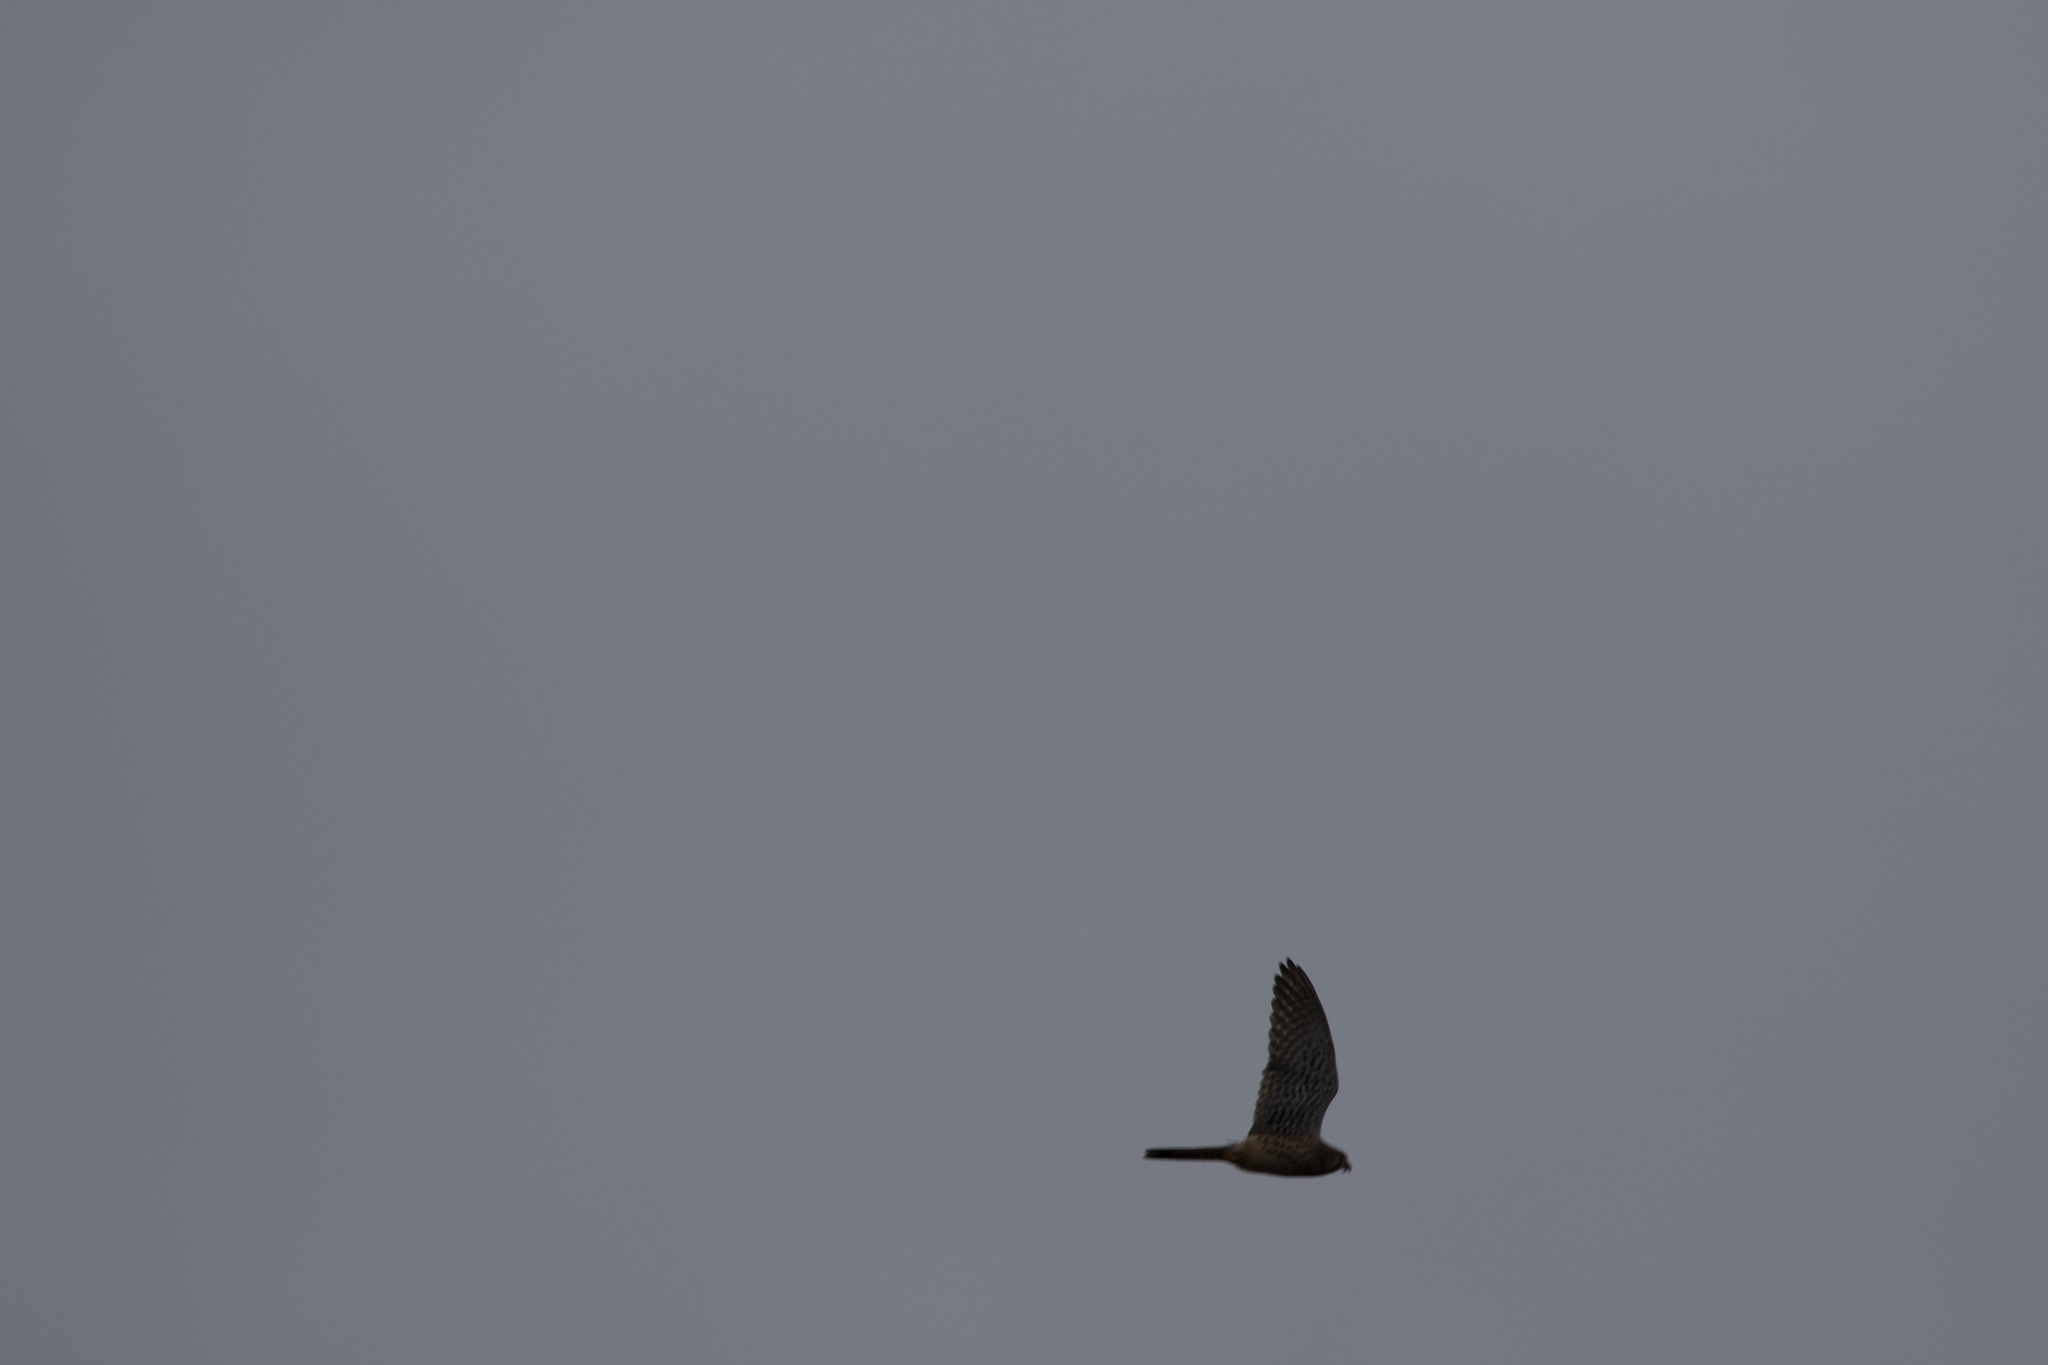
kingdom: Animalia
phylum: Chordata
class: Aves
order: Falconiformes
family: Falconidae
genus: Falco
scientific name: Falco tinnunculus
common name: Common kestrel
